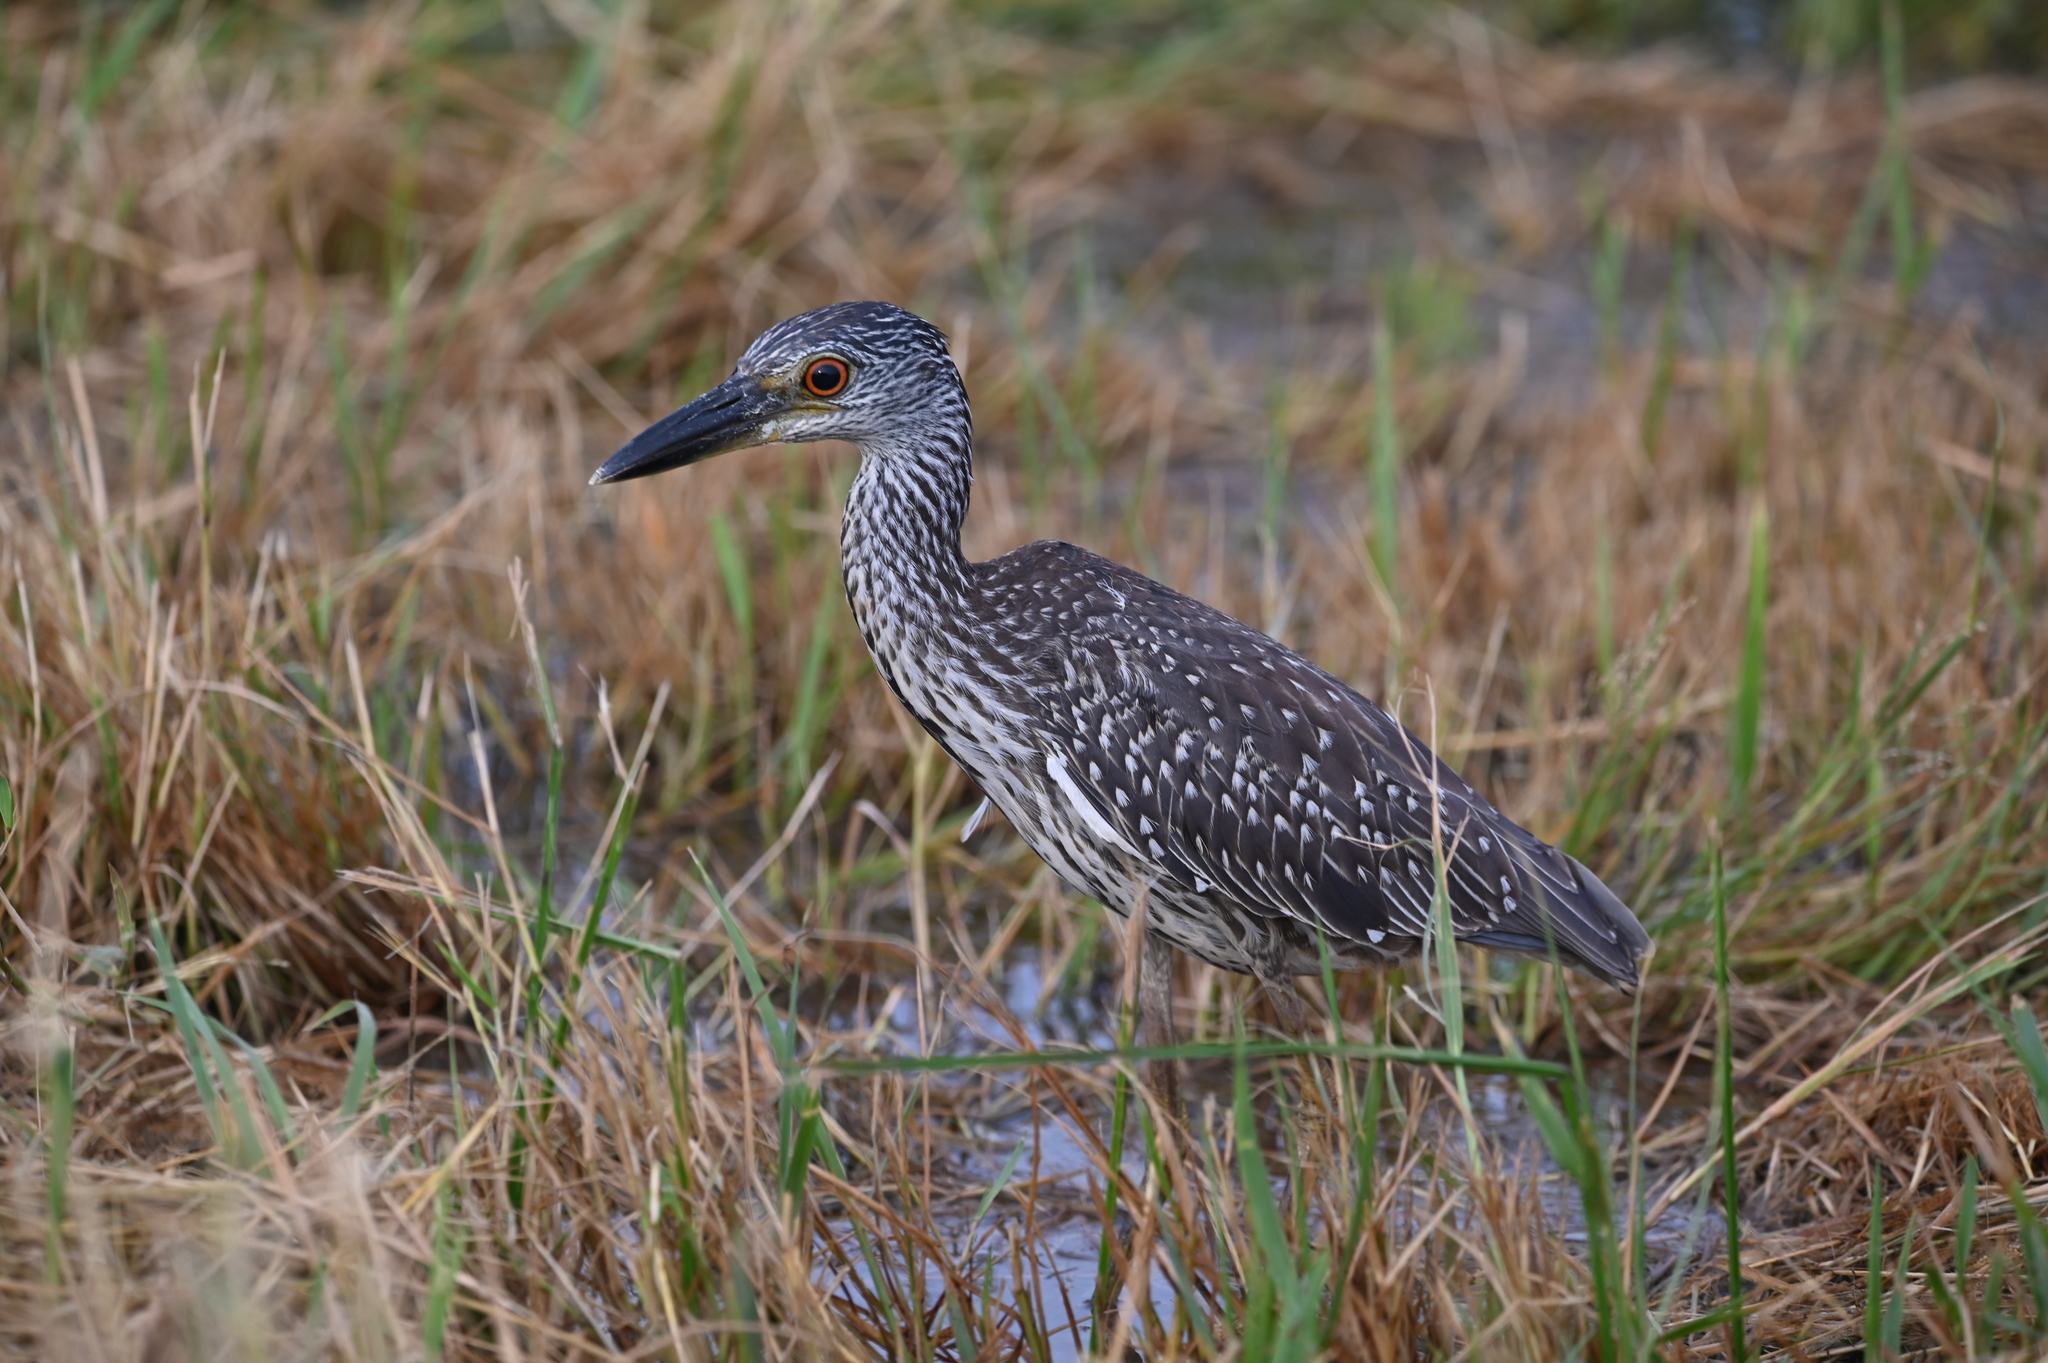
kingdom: Animalia
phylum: Chordata
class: Aves
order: Pelecaniformes
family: Ardeidae
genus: Nyctanassa
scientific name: Nyctanassa violacea
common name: Yellow-crowned night heron
